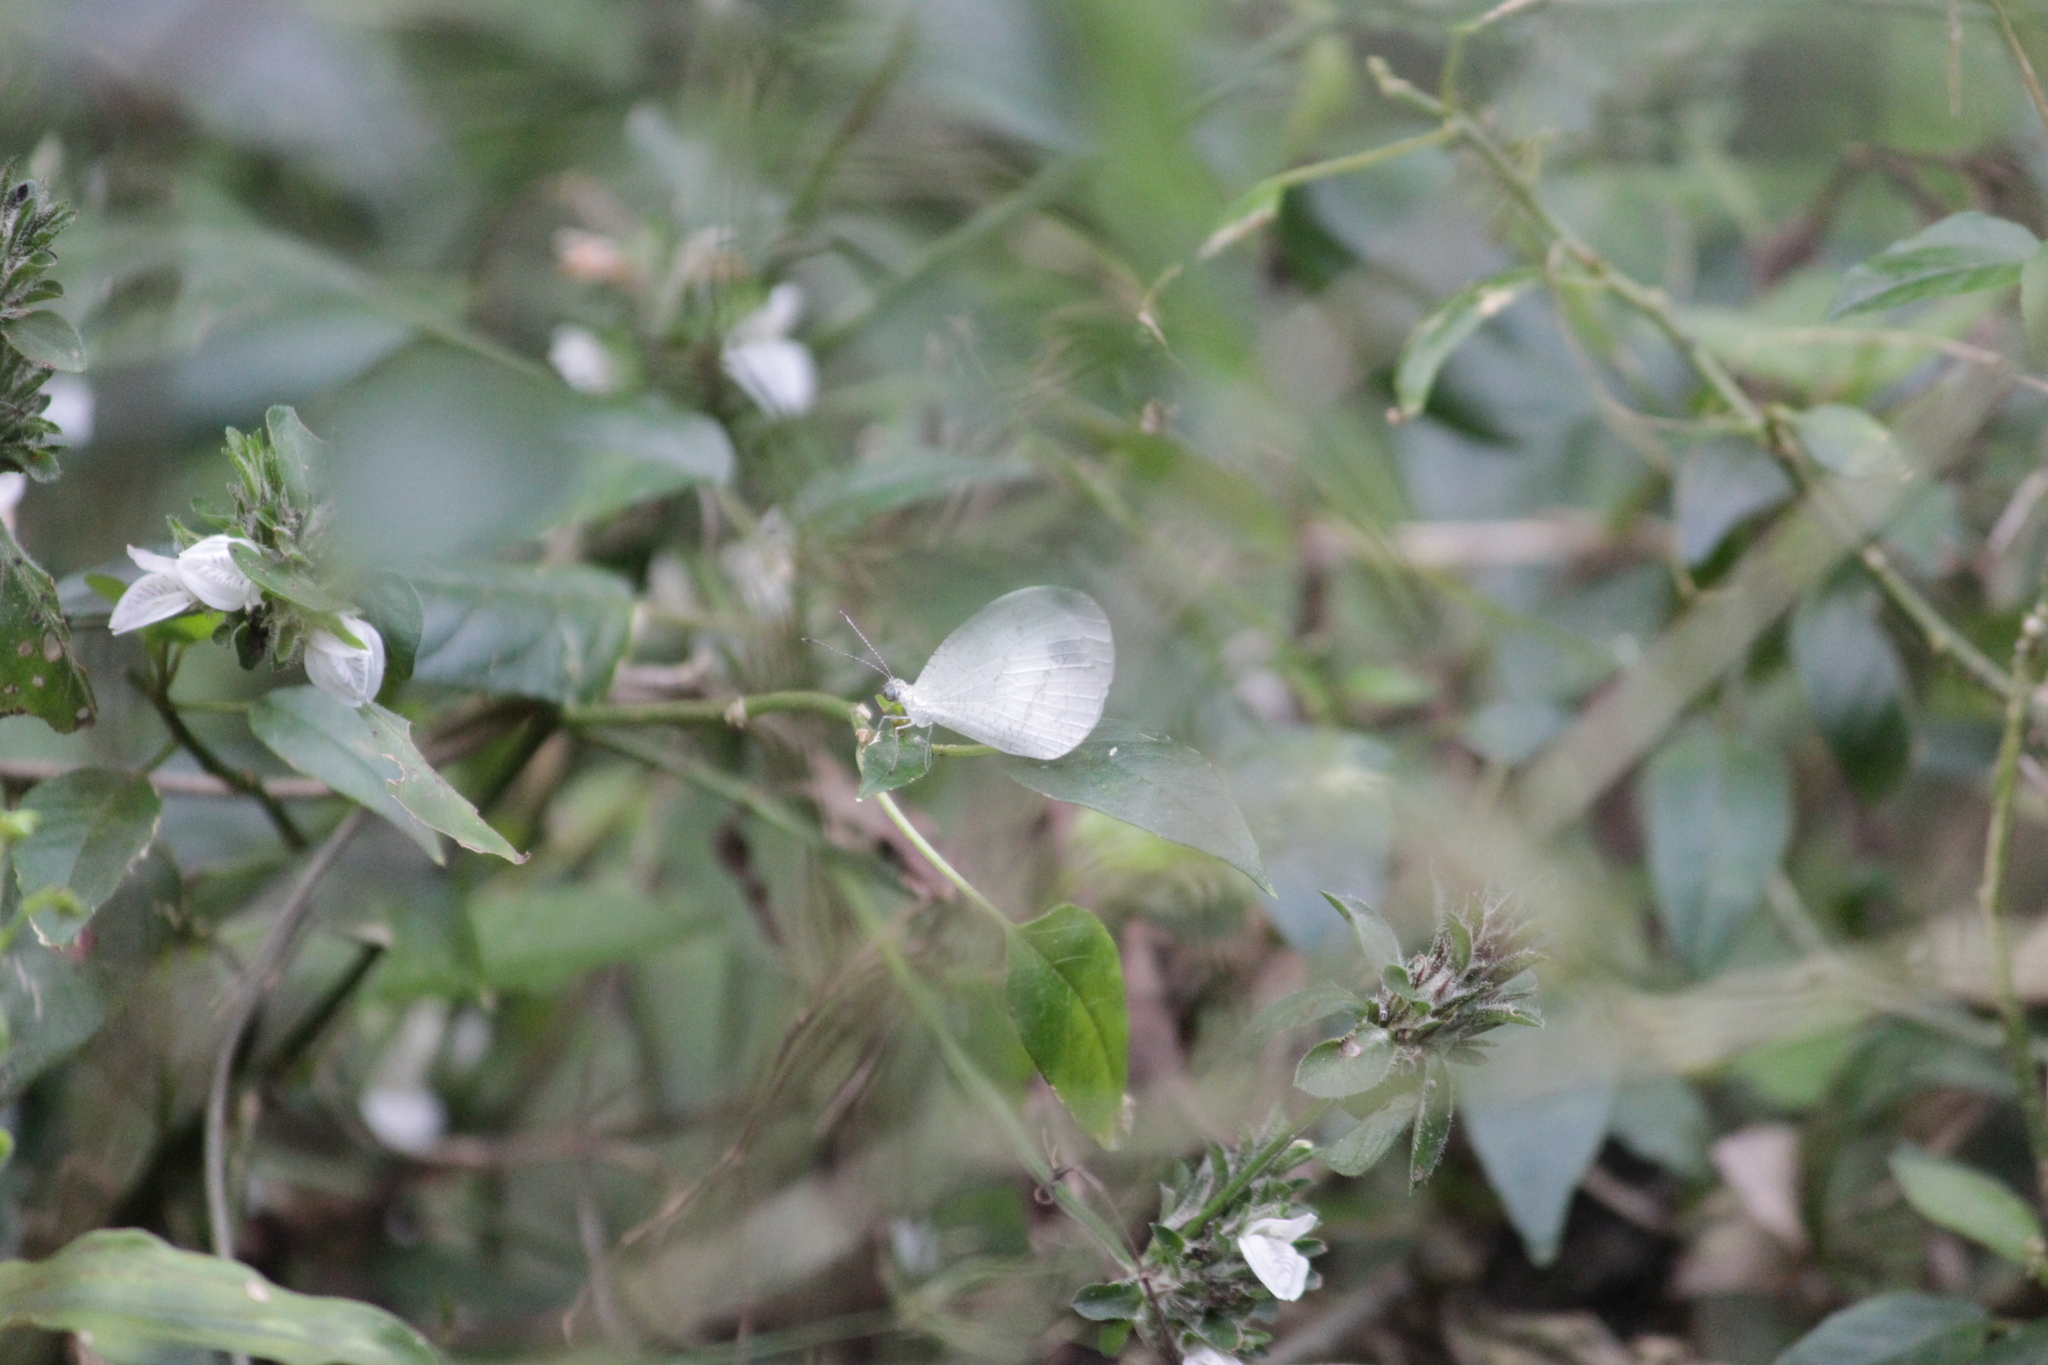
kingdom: Animalia
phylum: Arthropoda
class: Insecta
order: Lepidoptera
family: Pieridae
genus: Leptosia
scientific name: Leptosia alcesta
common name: African wood white
